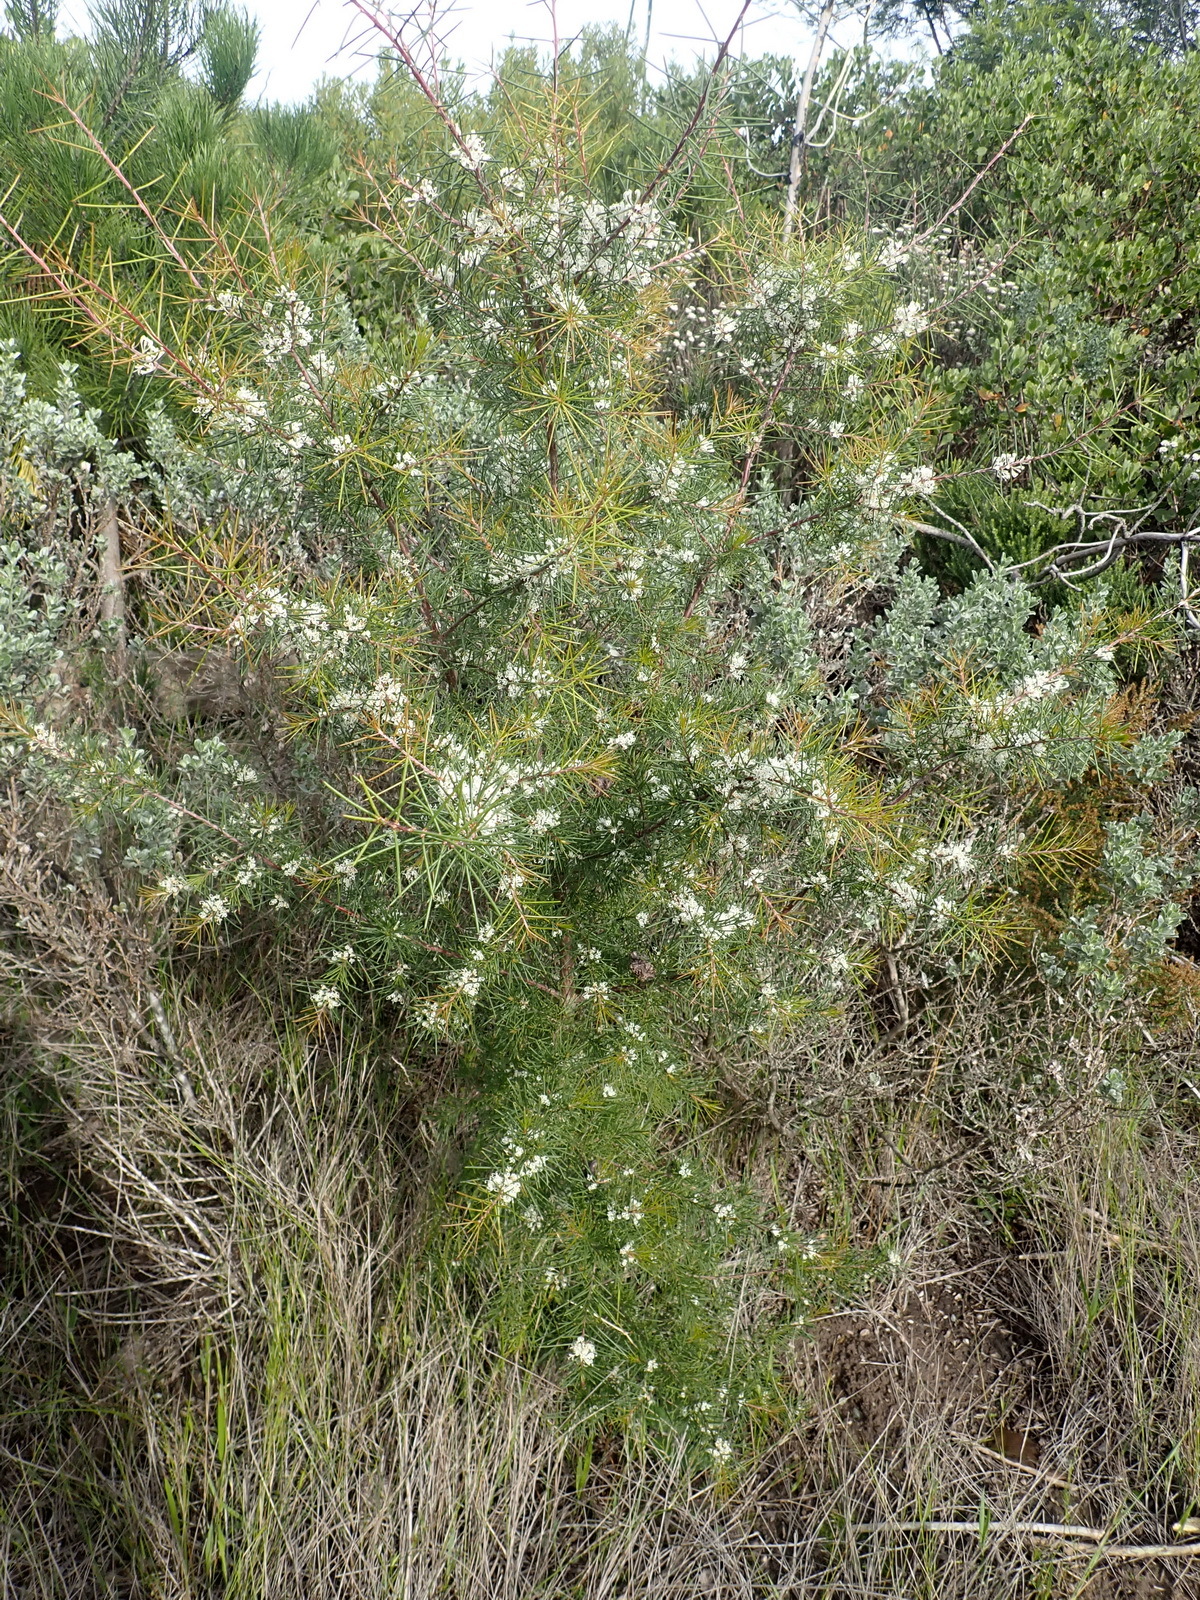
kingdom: Plantae
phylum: Tracheophyta
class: Magnoliopsida
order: Proteales
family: Proteaceae
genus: Hakea
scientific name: Hakea sericea
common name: Needle bush
